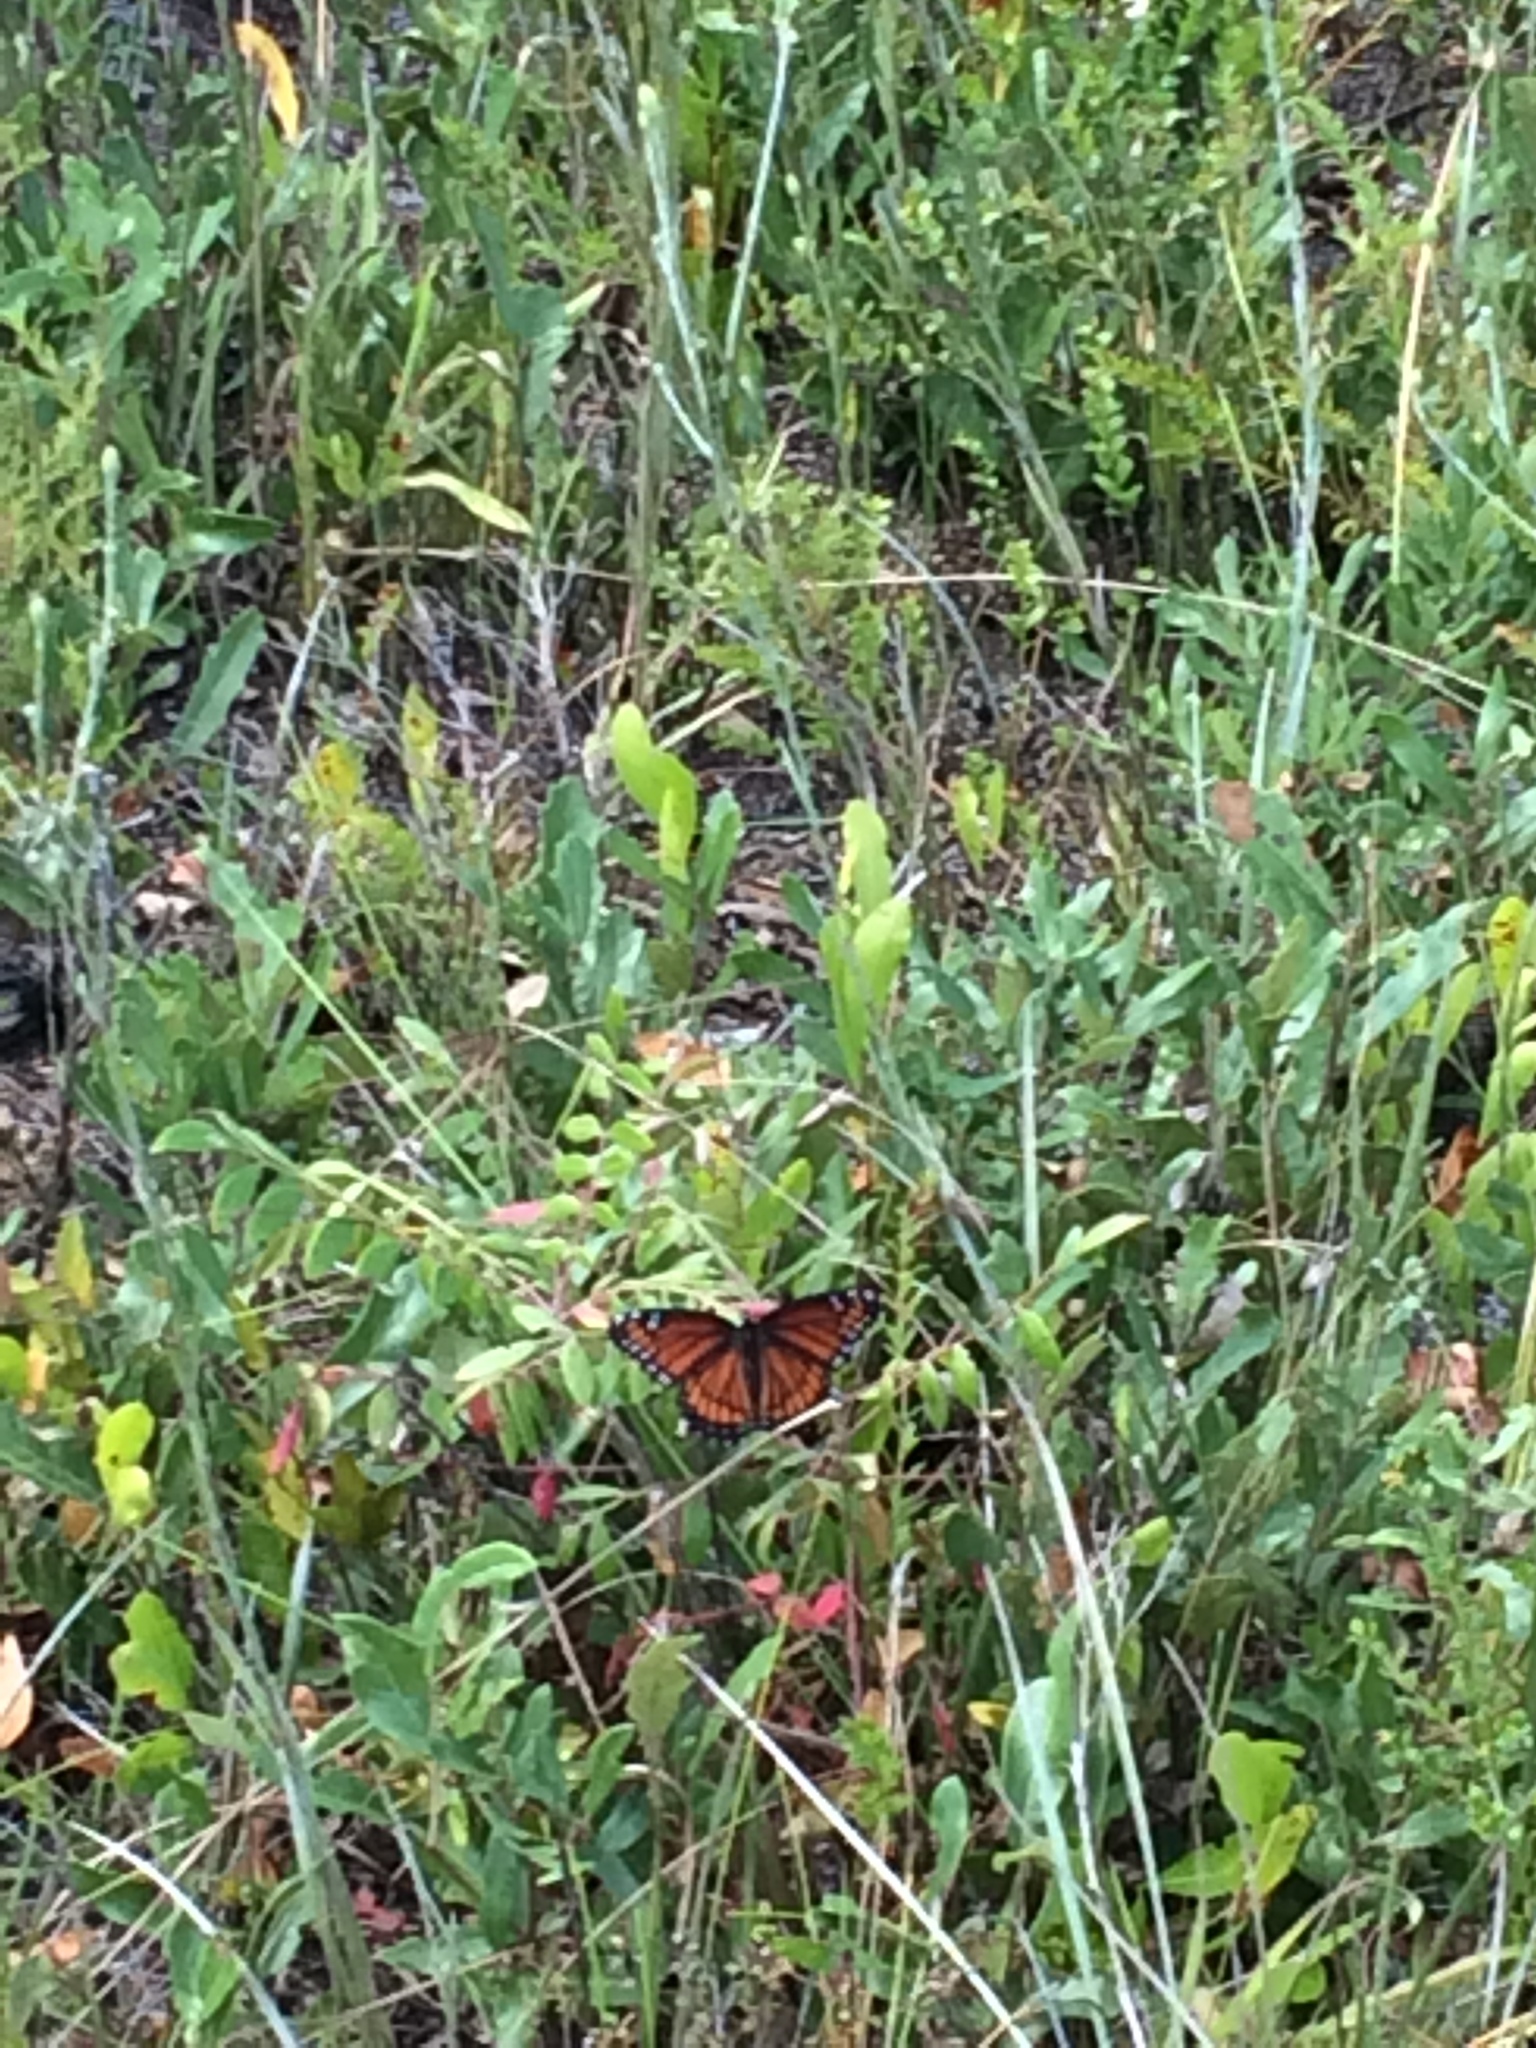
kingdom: Animalia
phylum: Arthropoda
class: Insecta
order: Lepidoptera
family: Nymphalidae
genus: Limenitis
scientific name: Limenitis archippus
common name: Viceroy
